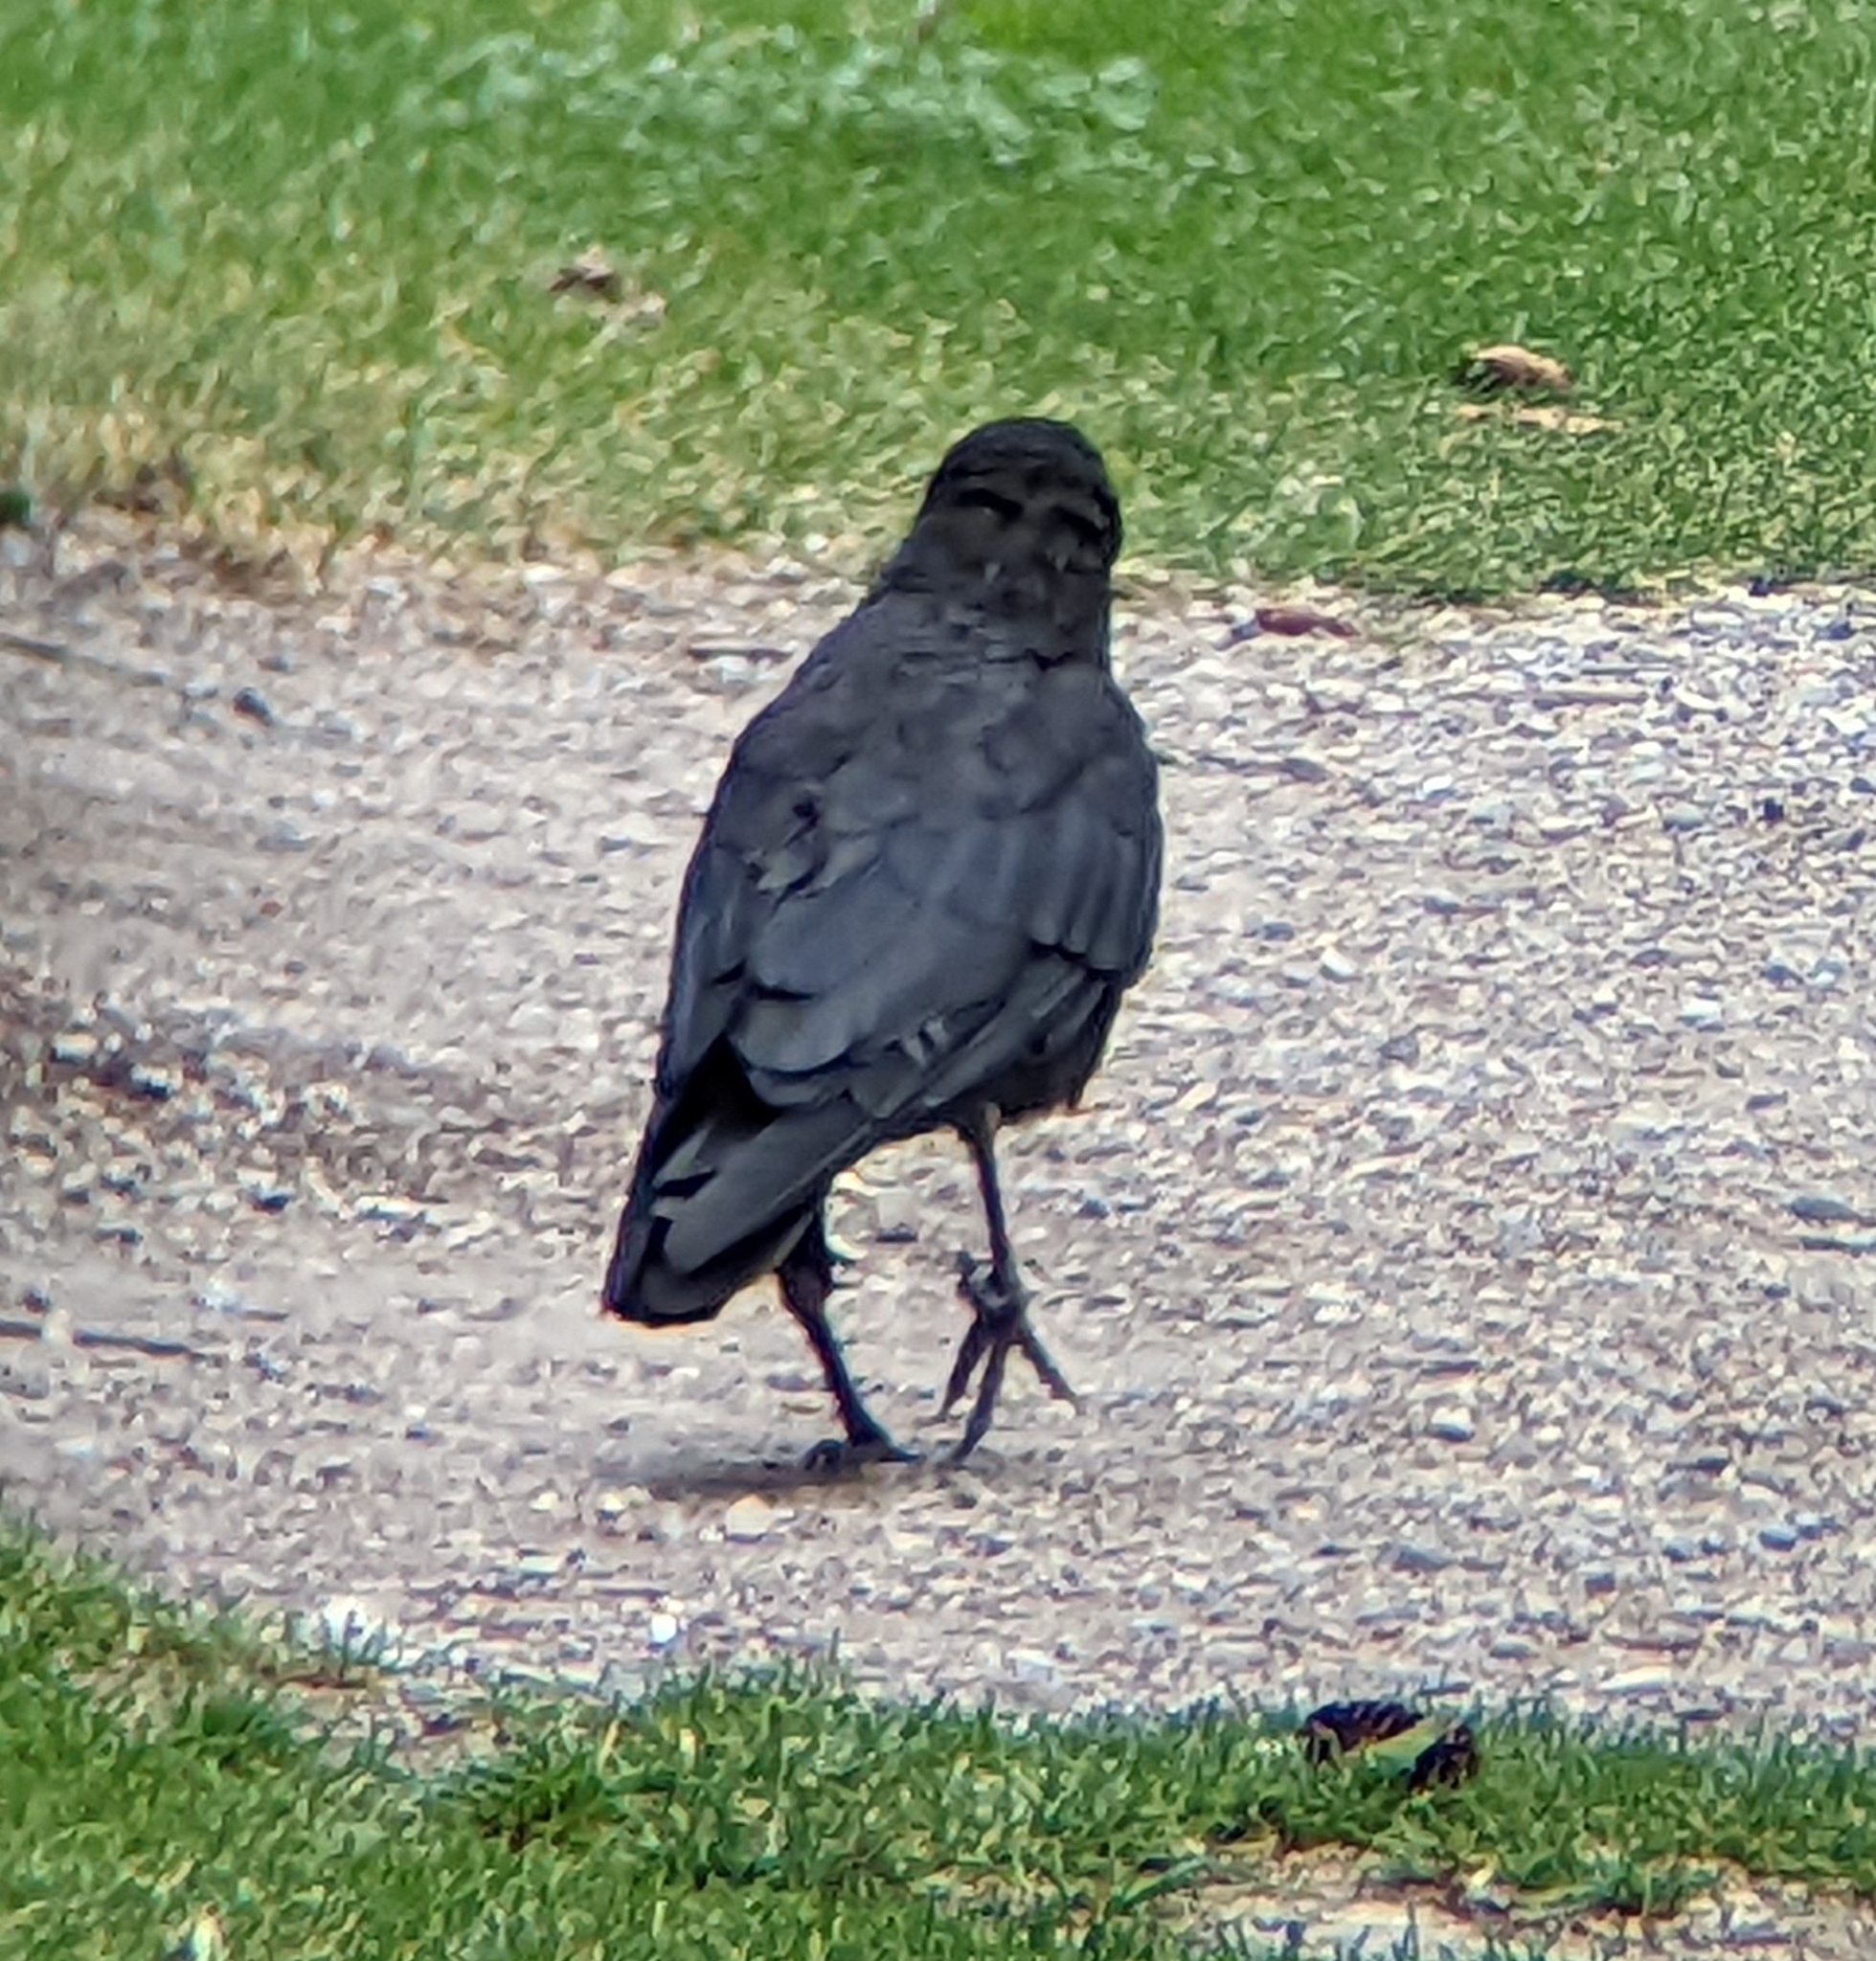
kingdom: Animalia
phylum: Chordata
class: Aves
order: Passeriformes
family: Corvidae
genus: Corvus
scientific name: Corvus brachyrhynchos
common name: American crow
